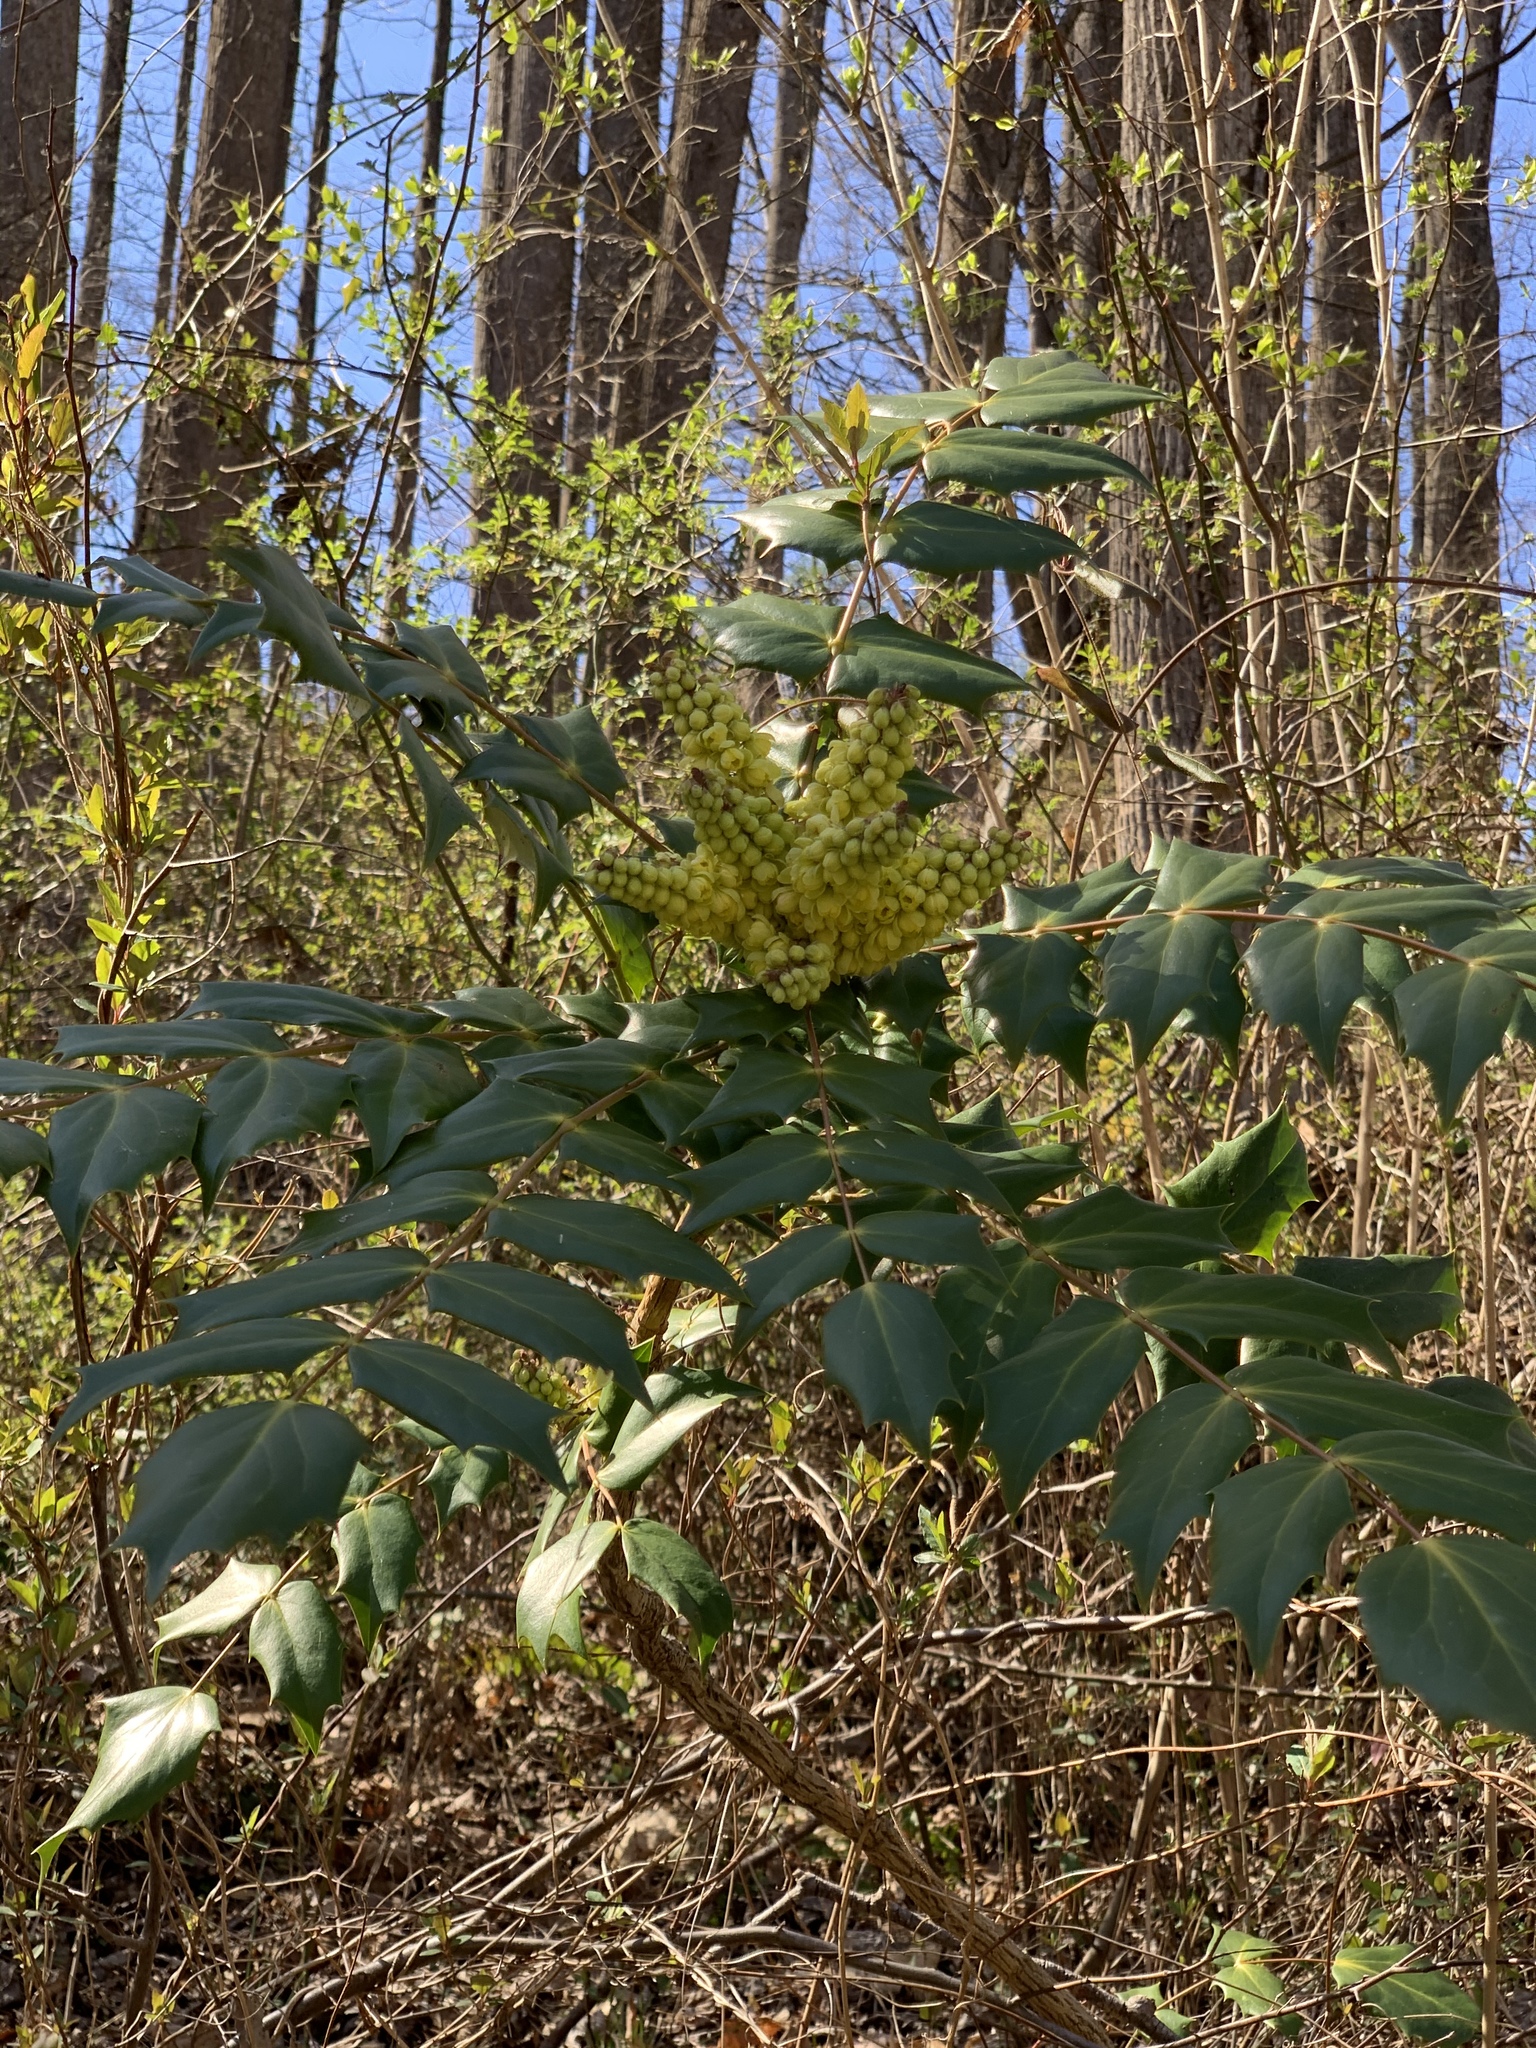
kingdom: Plantae
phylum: Tracheophyta
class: Magnoliopsida
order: Ranunculales
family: Berberidaceae
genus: Mahonia
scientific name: Mahonia bealei
